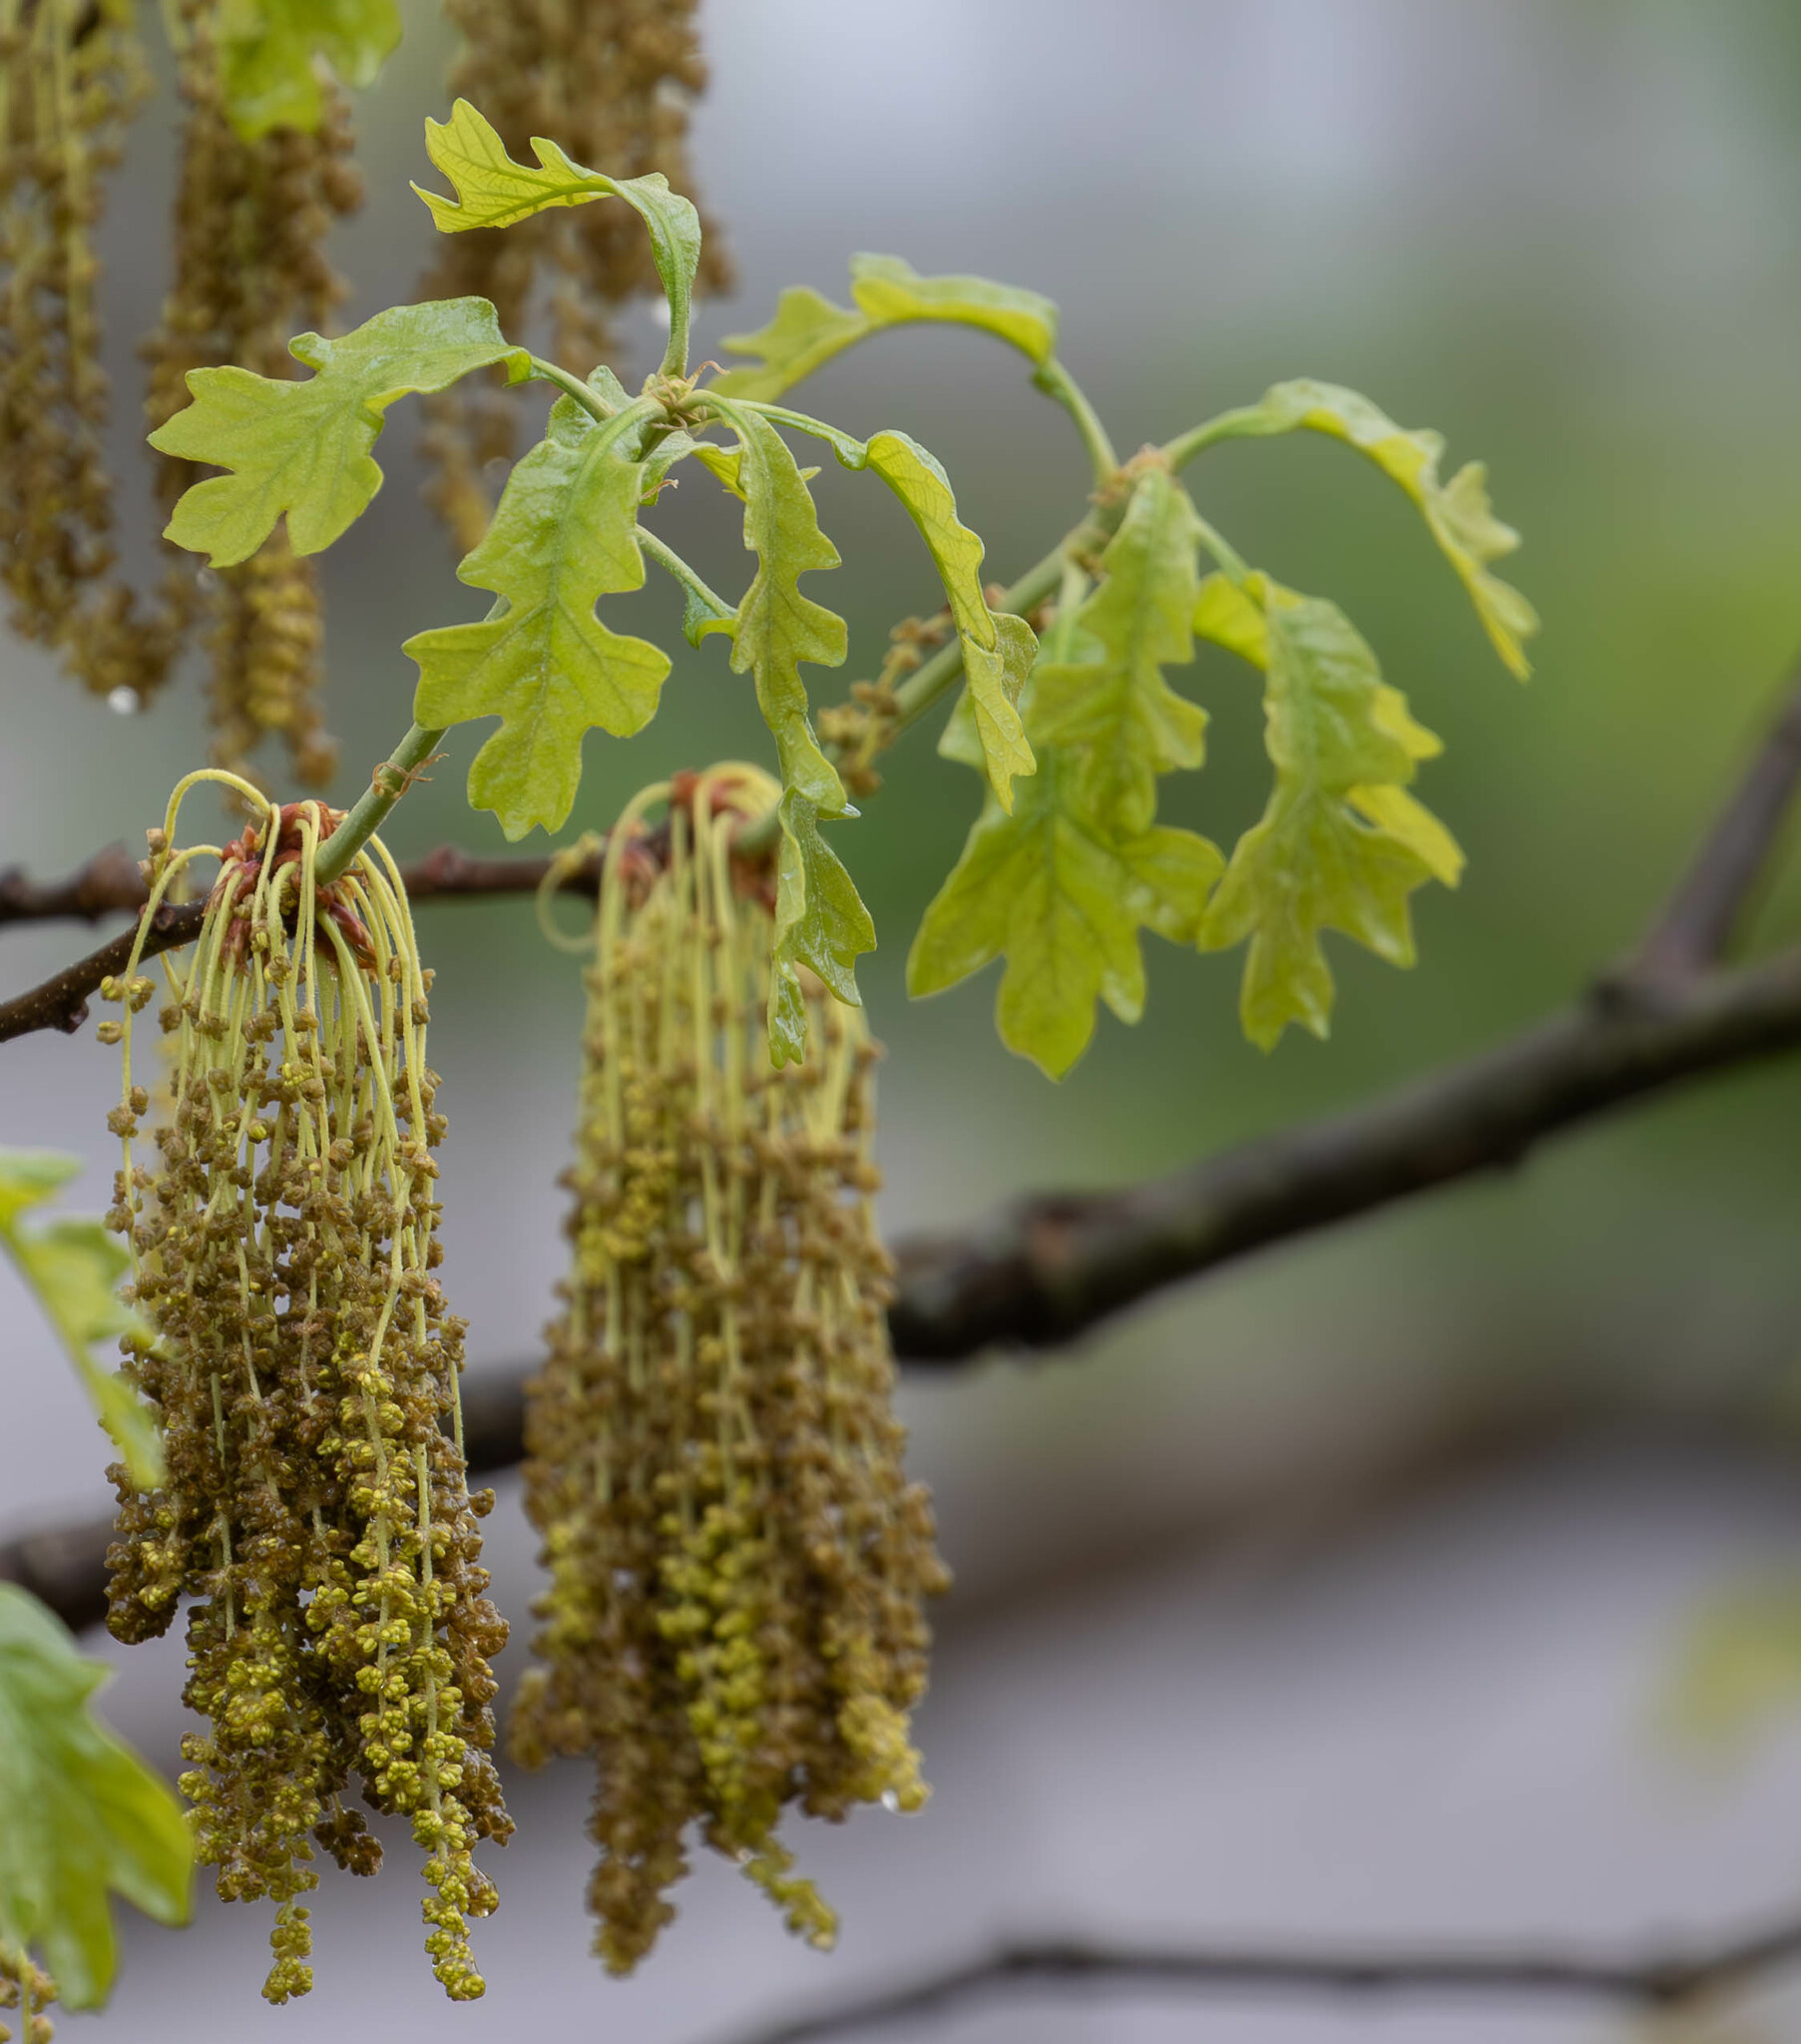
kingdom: Plantae
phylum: Tracheophyta
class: Magnoliopsida
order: Fagales
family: Fagaceae
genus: Quercus
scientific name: Quercus stellata
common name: Post oak
